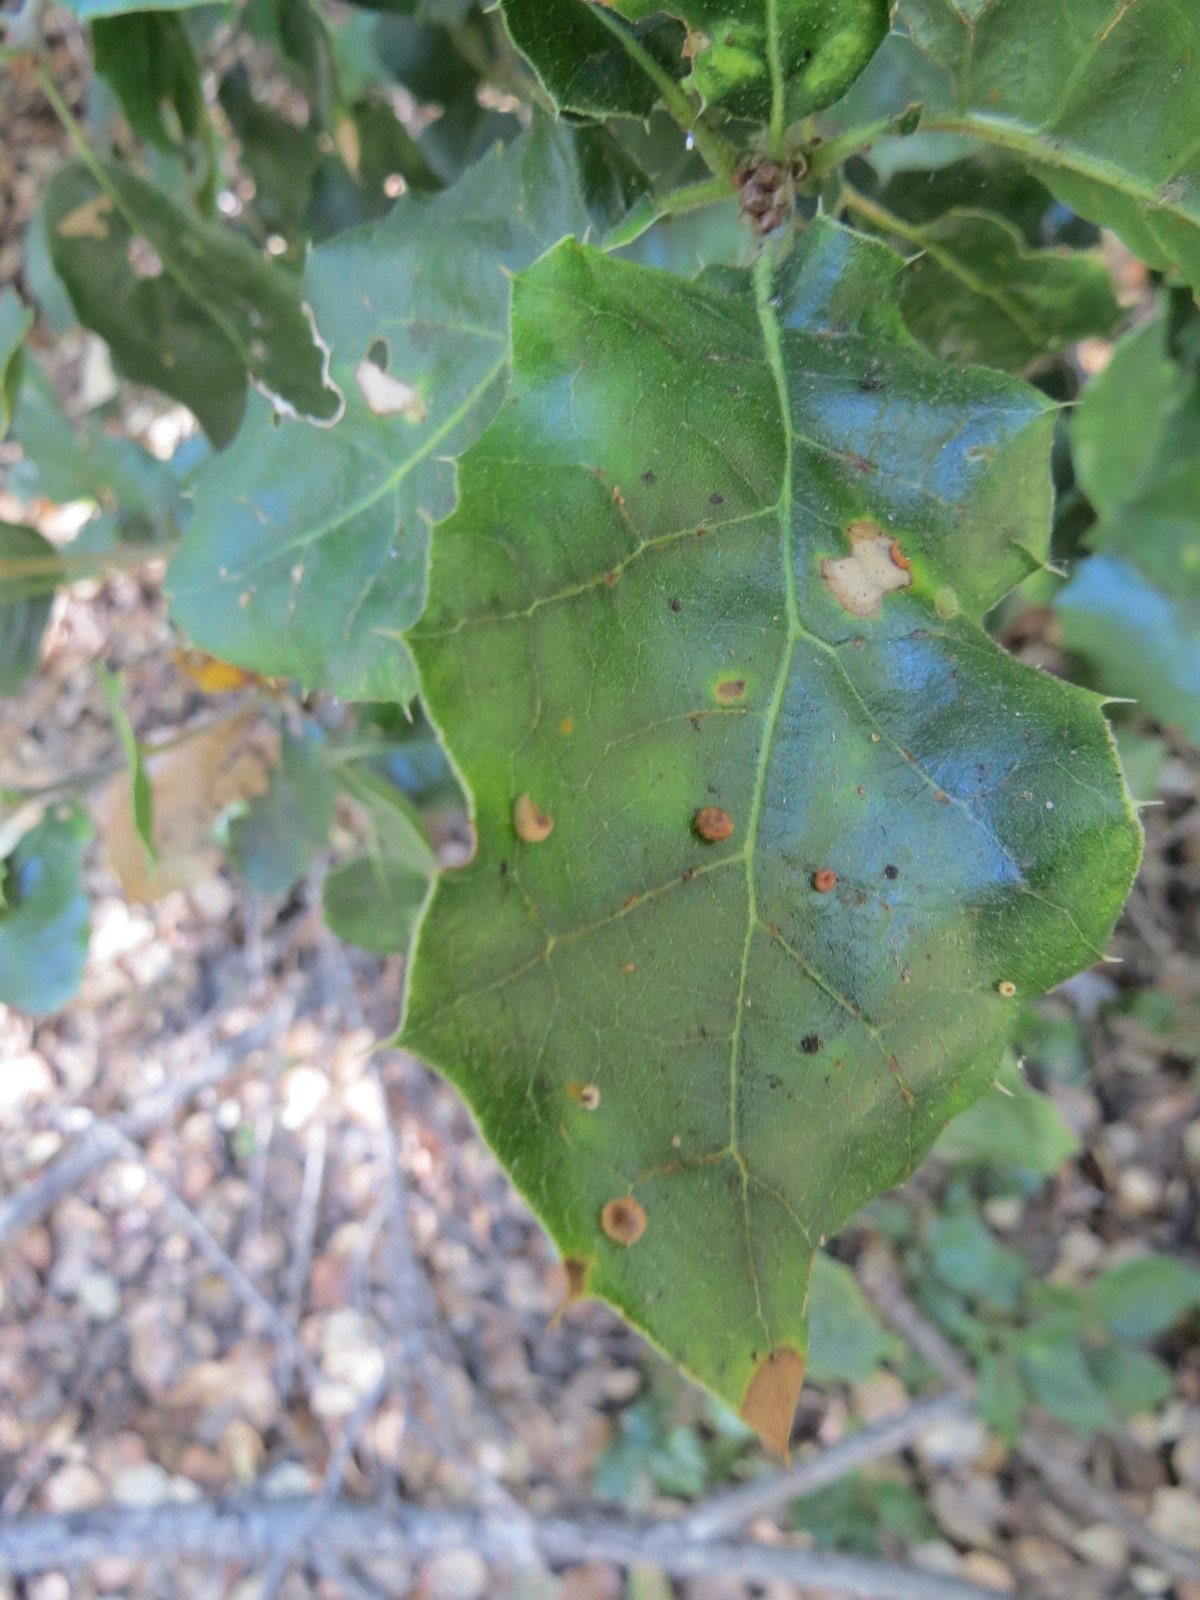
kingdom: Animalia
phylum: Arthropoda
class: Insecta
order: Hymenoptera
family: Cynipidae
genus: Dryocosmus
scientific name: Dryocosmus
